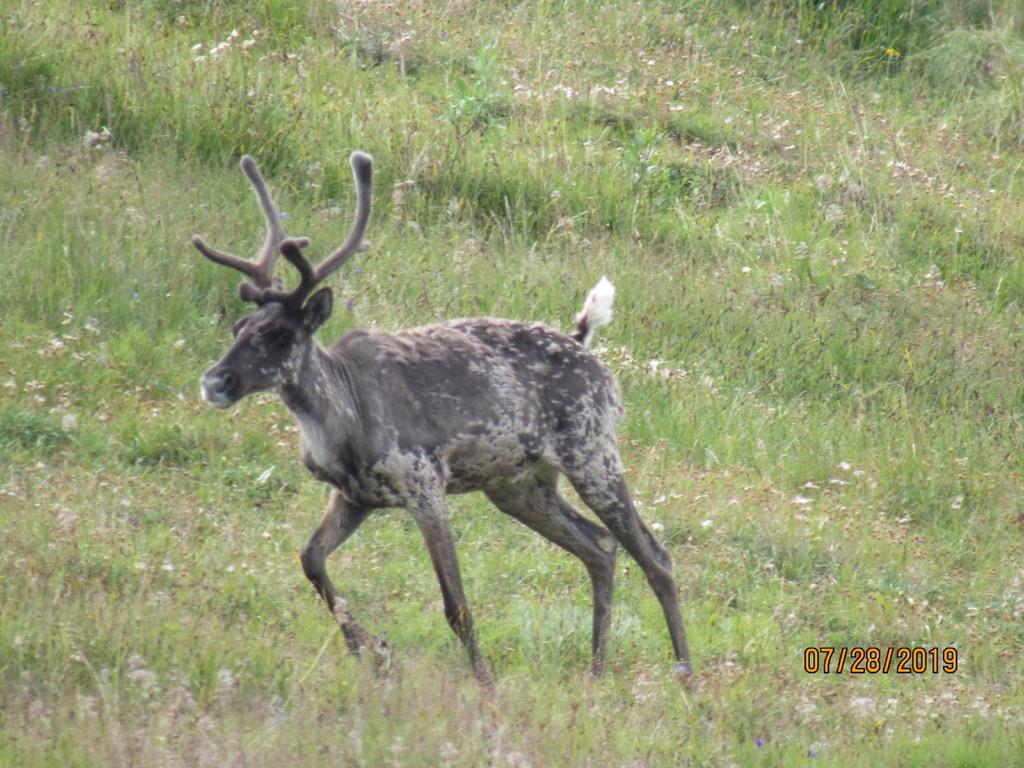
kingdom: Animalia
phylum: Chordata
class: Mammalia
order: Artiodactyla
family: Cervidae
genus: Rangifer
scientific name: Rangifer tarandus
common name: Reindeer
